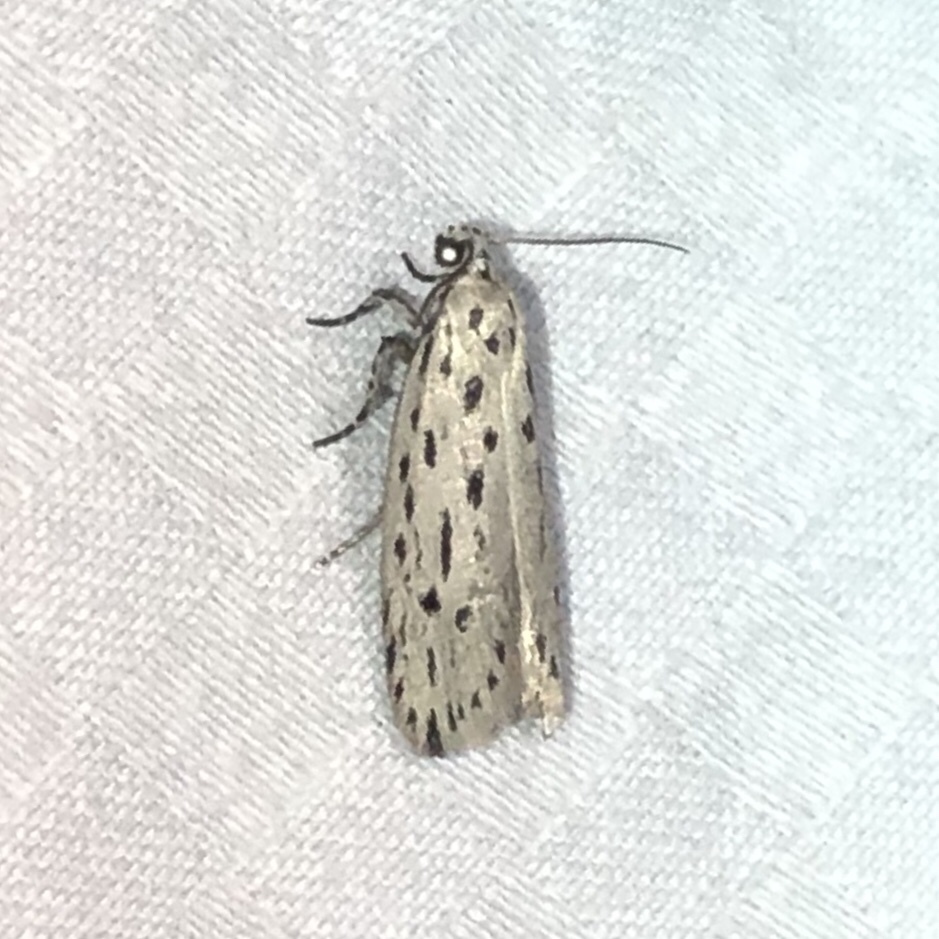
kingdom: Animalia
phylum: Arthropoda
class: Insecta
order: Lepidoptera
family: Ethmiidae
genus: Ethmia
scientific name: Ethmia longimaculella
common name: Streaked ethmia moth
